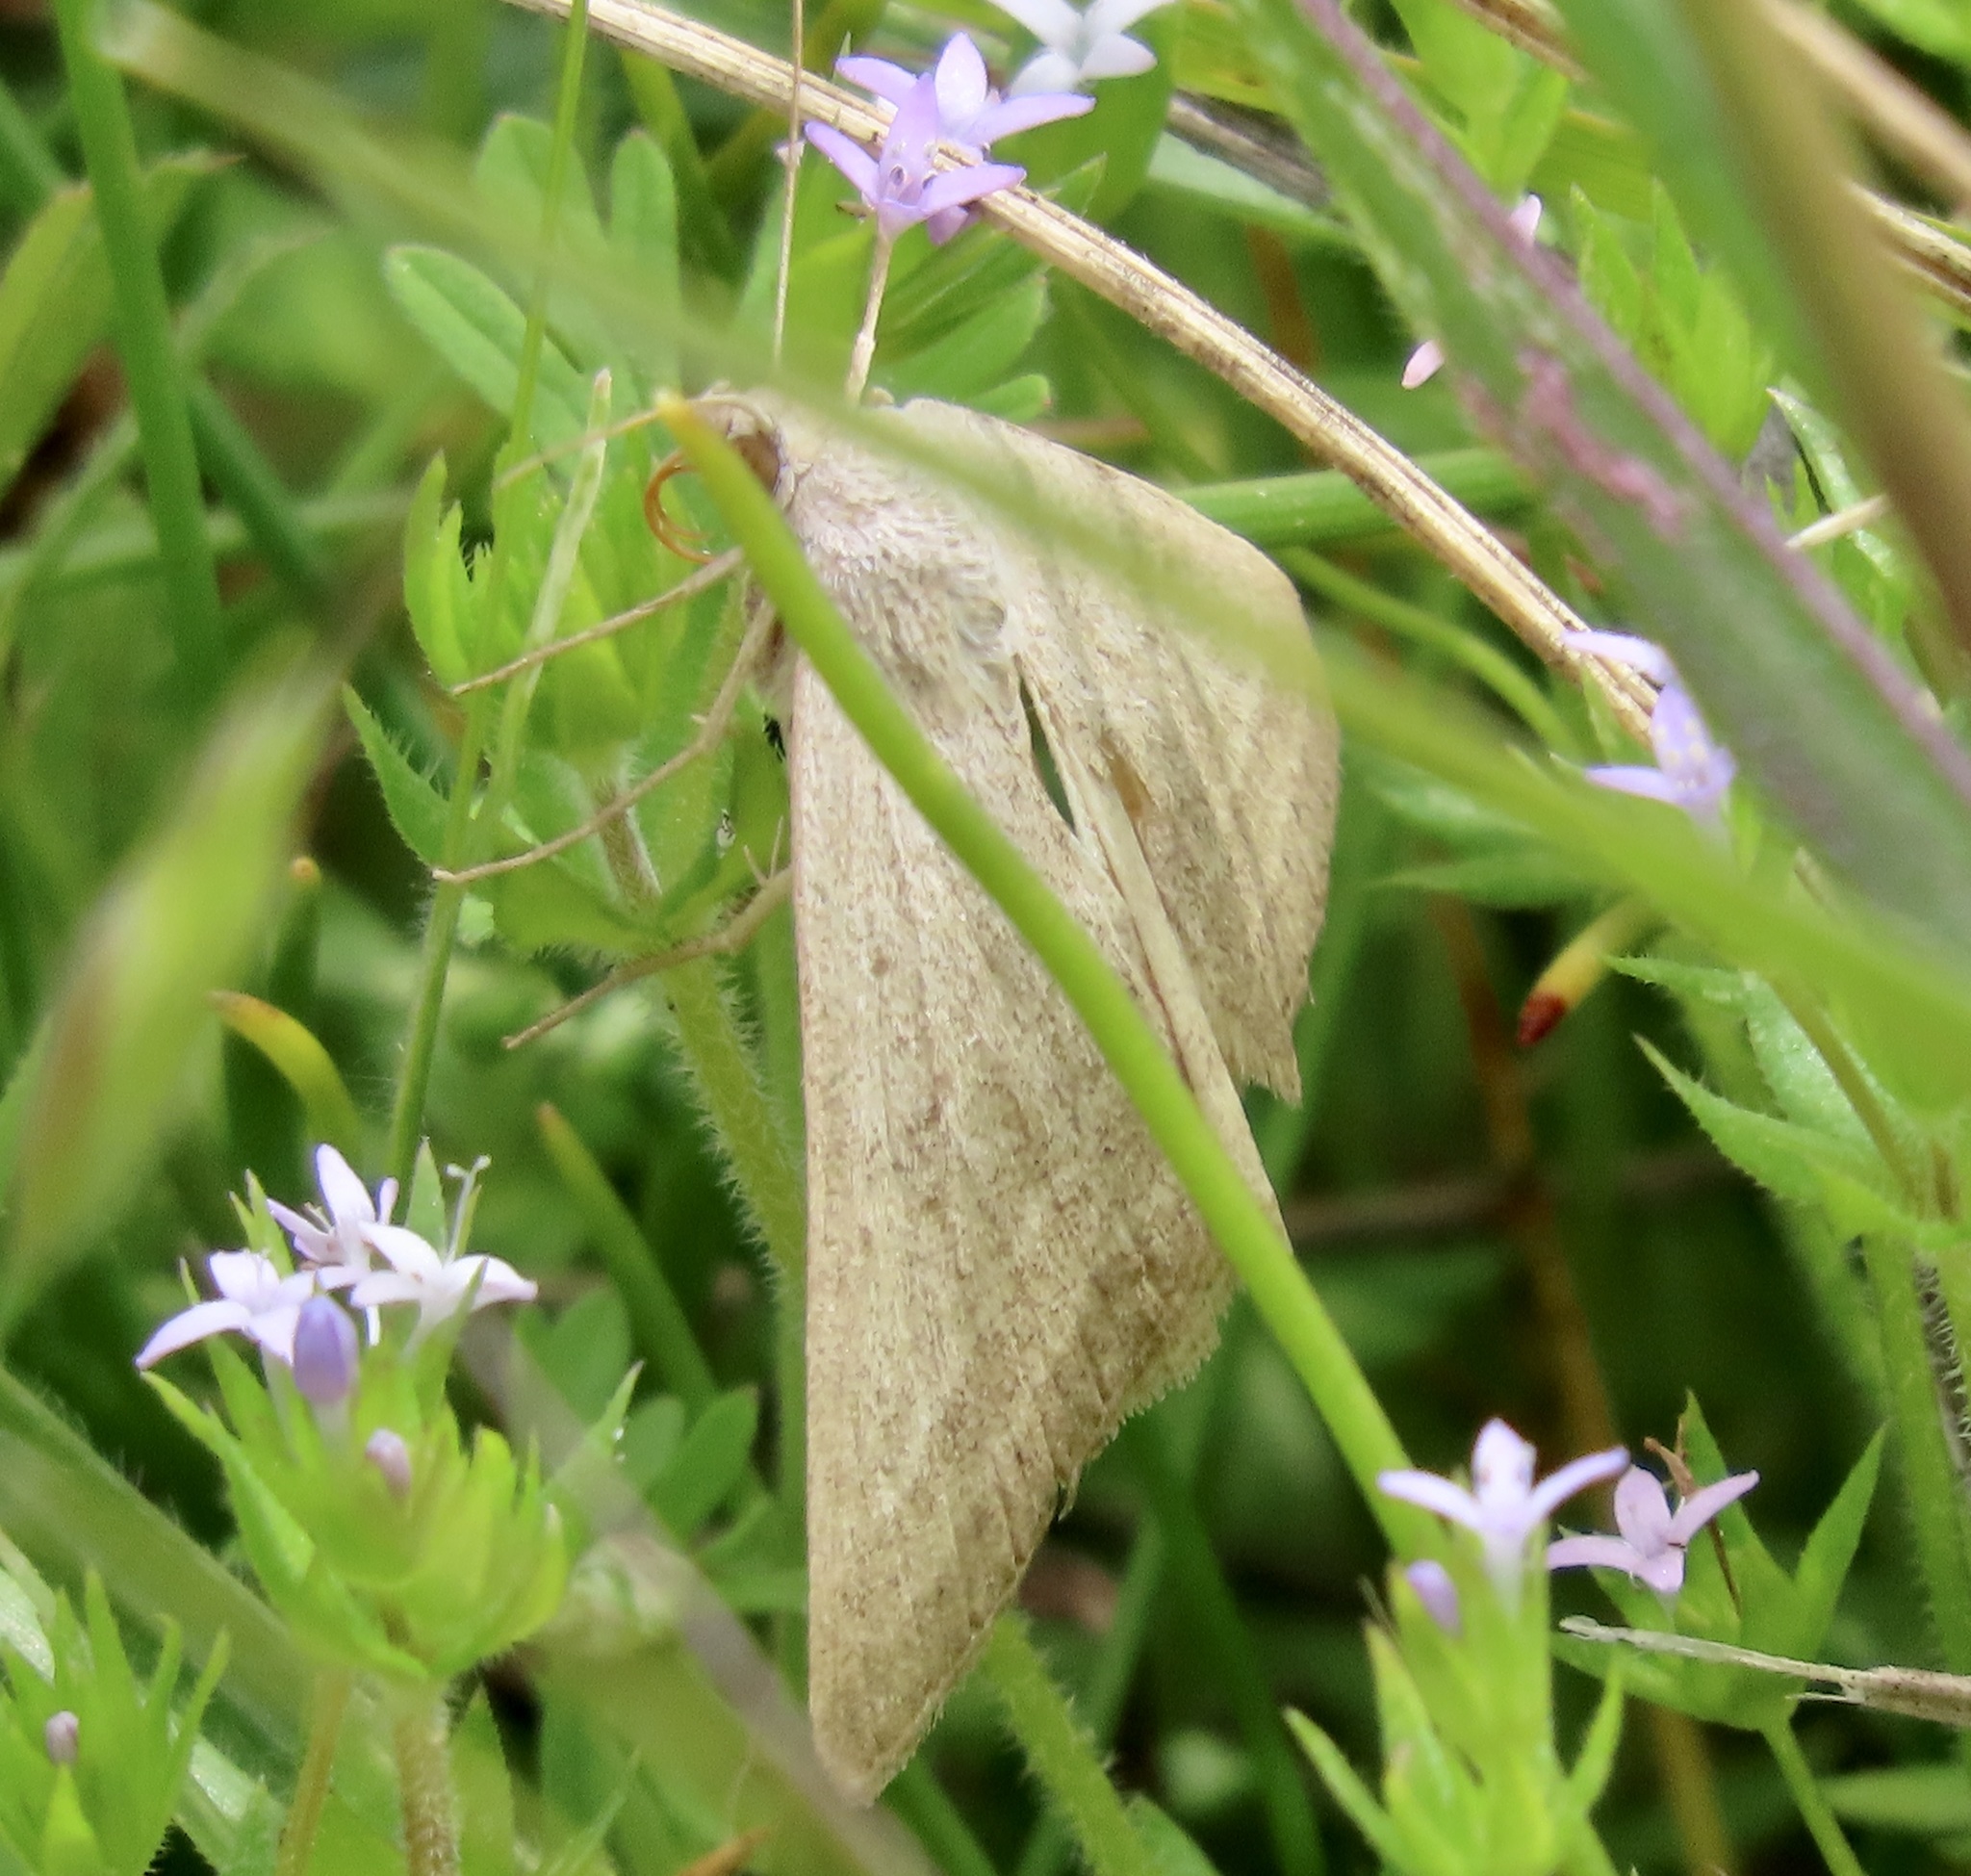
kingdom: Animalia
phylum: Arthropoda
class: Insecta
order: Lepidoptera
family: Erebidae
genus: Caenurgia
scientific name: Caenurgia togataria
